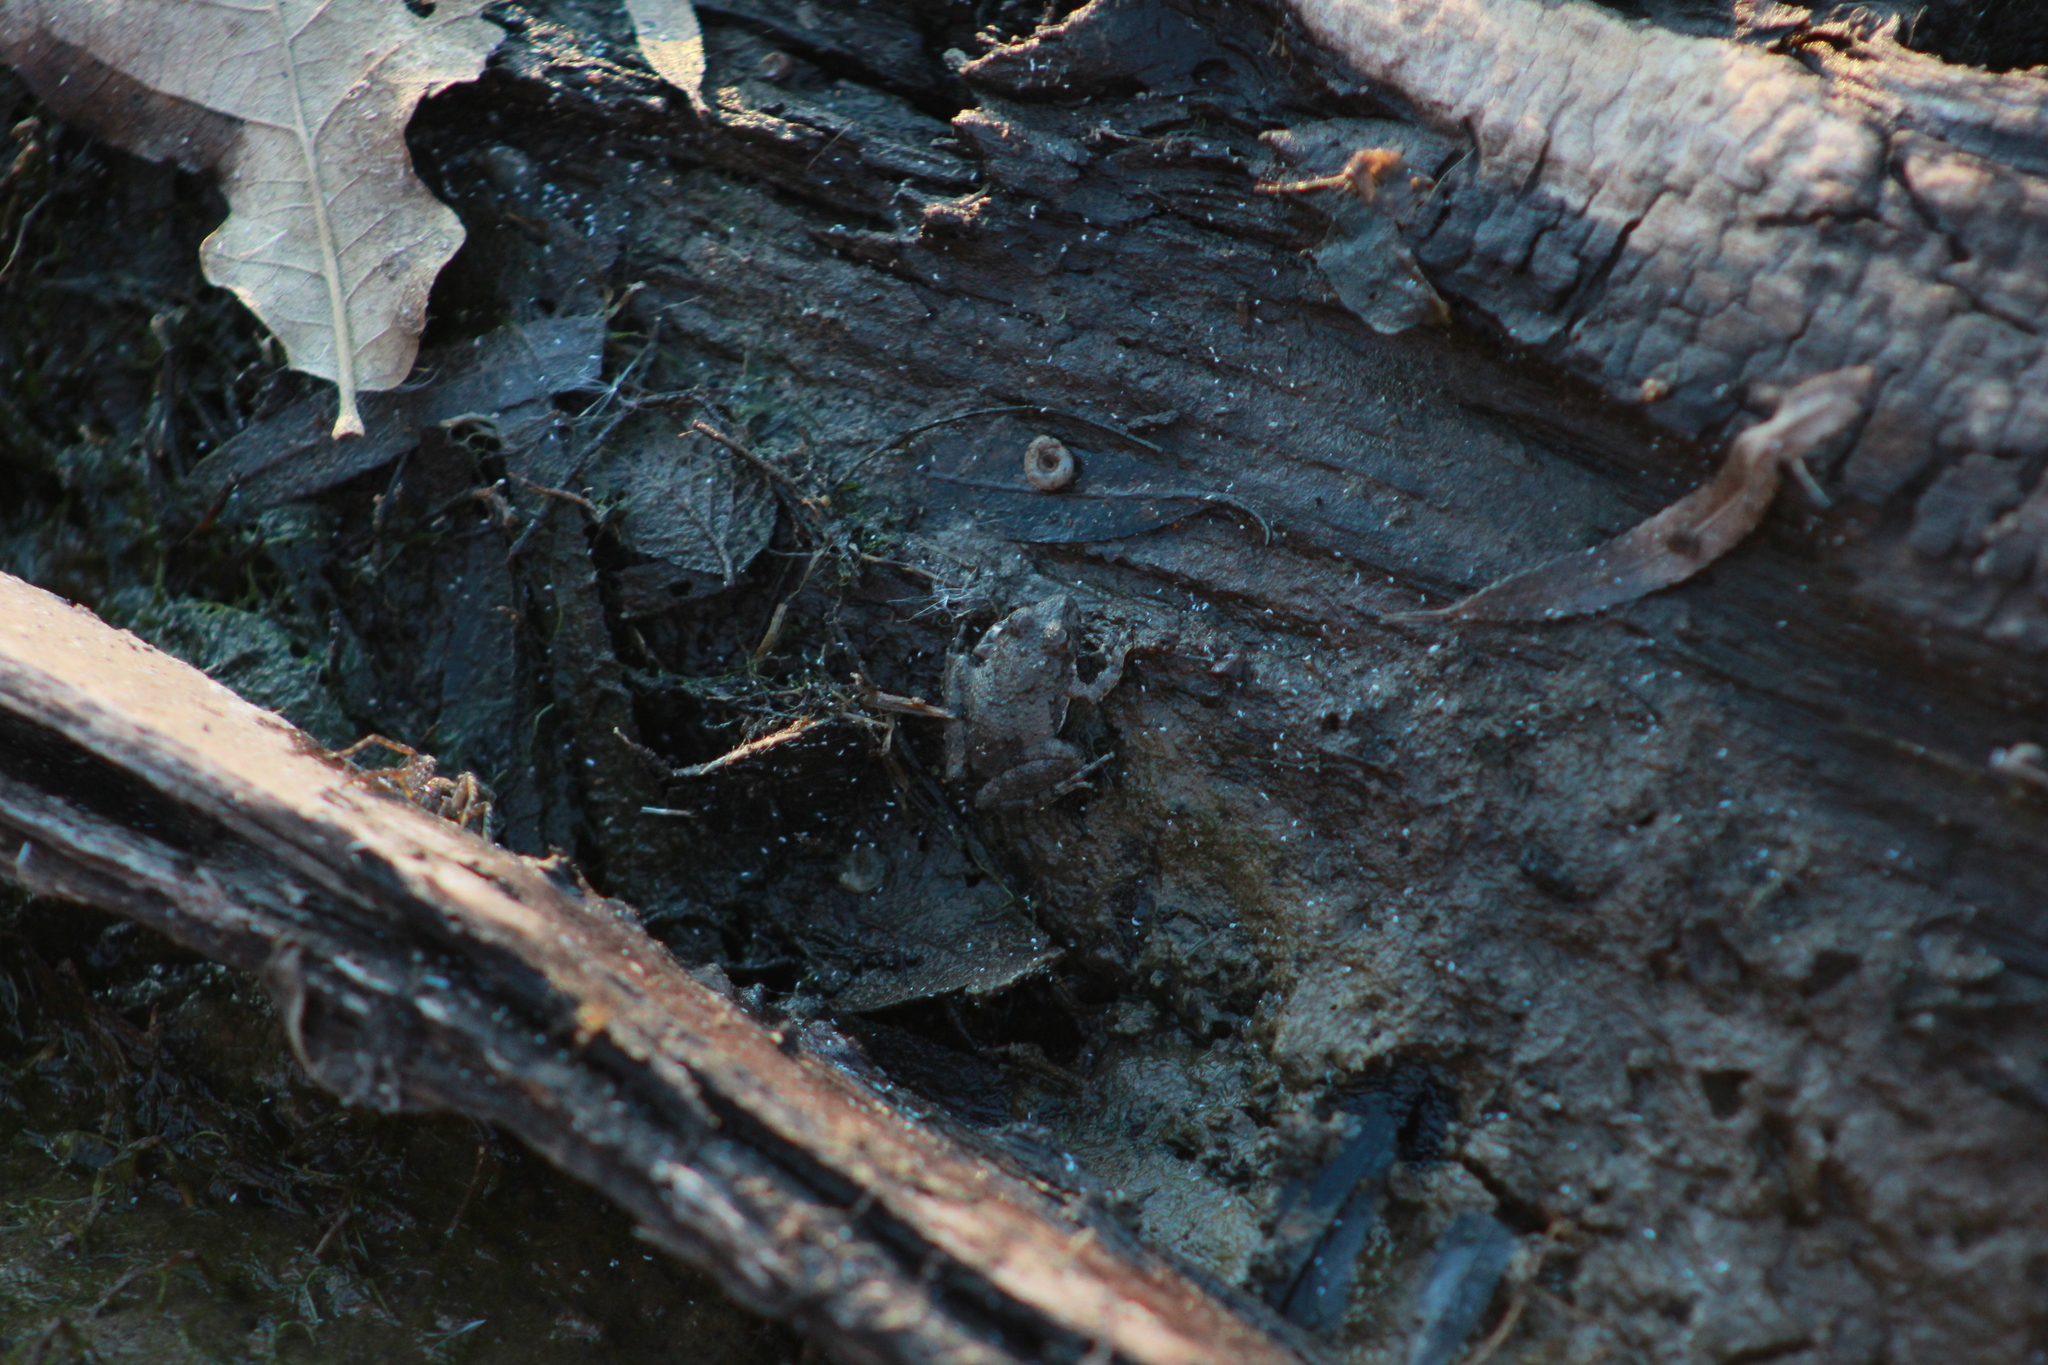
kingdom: Animalia
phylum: Chordata
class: Amphibia
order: Anura
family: Hylidae
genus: Acris
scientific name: Acris blanchardi
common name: Blanchard's cricket frog
